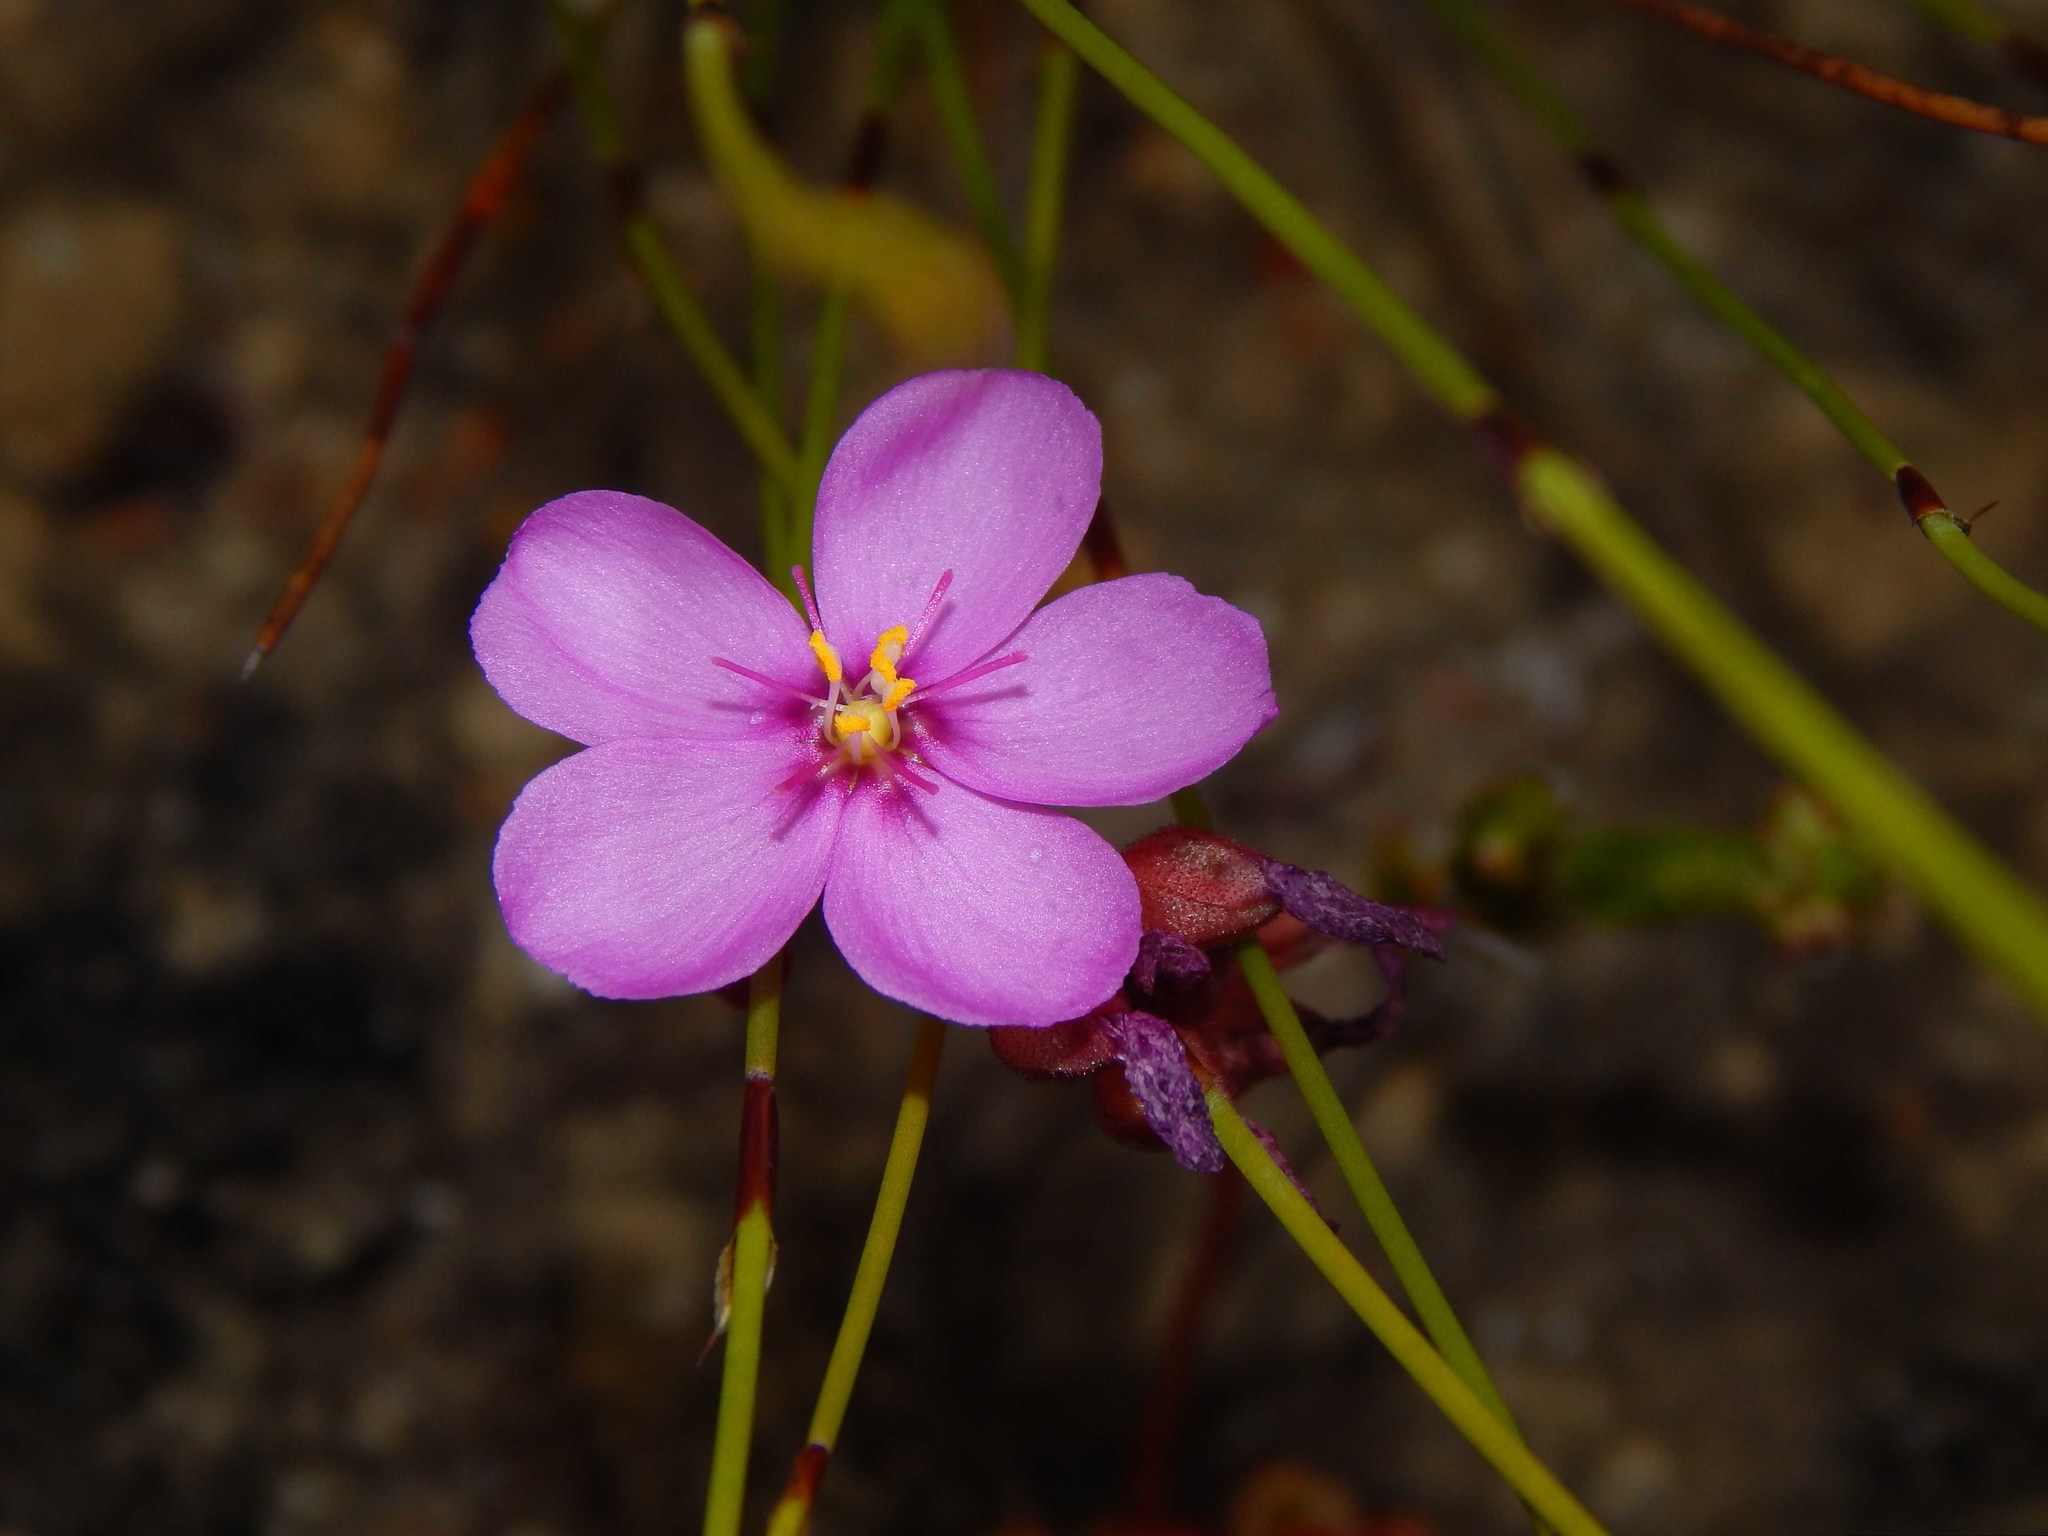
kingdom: Plantae
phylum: Tracheophyta
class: Magnoliopsida
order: Caryophyllales
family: Droseraceae
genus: Drosera
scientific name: Drosera aliciae
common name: Alice sundew
